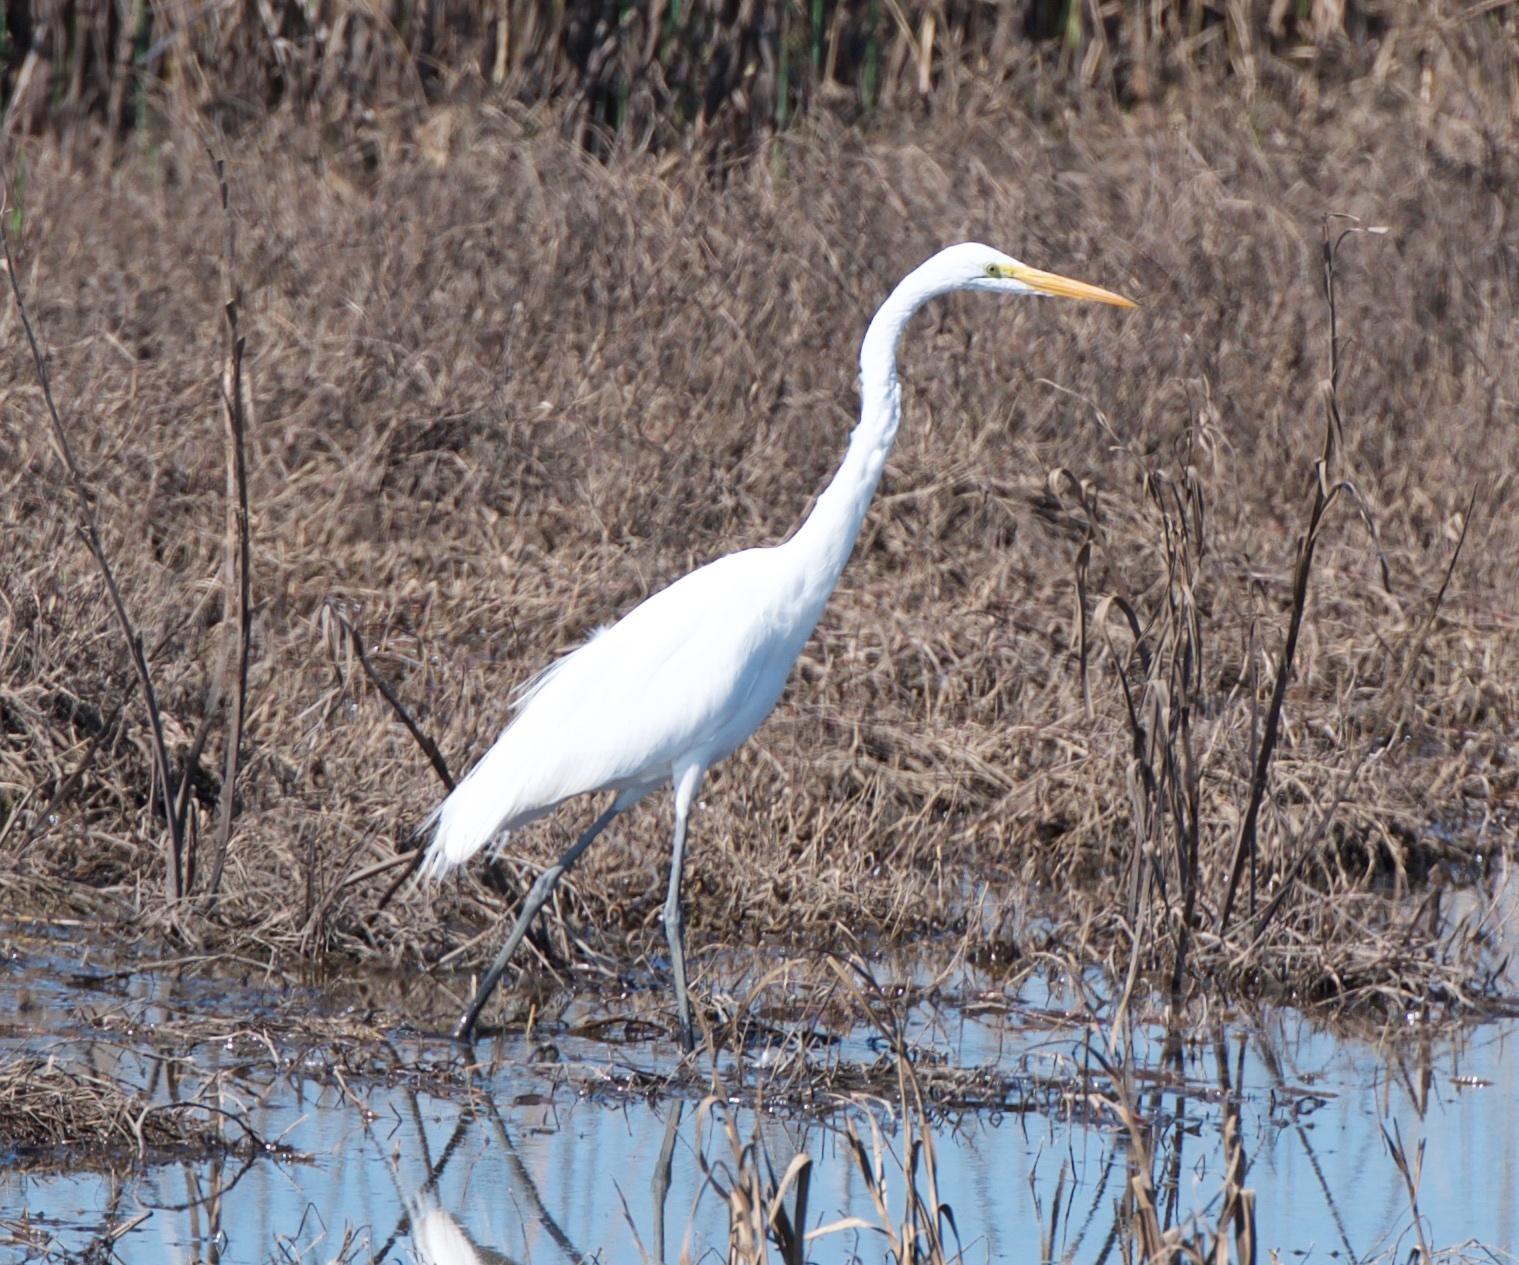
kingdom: Animalia
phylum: Chordata
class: Aves
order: Pelecaniformes
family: Ardeidae
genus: Ardea
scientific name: Ardea alba
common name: Great egret
